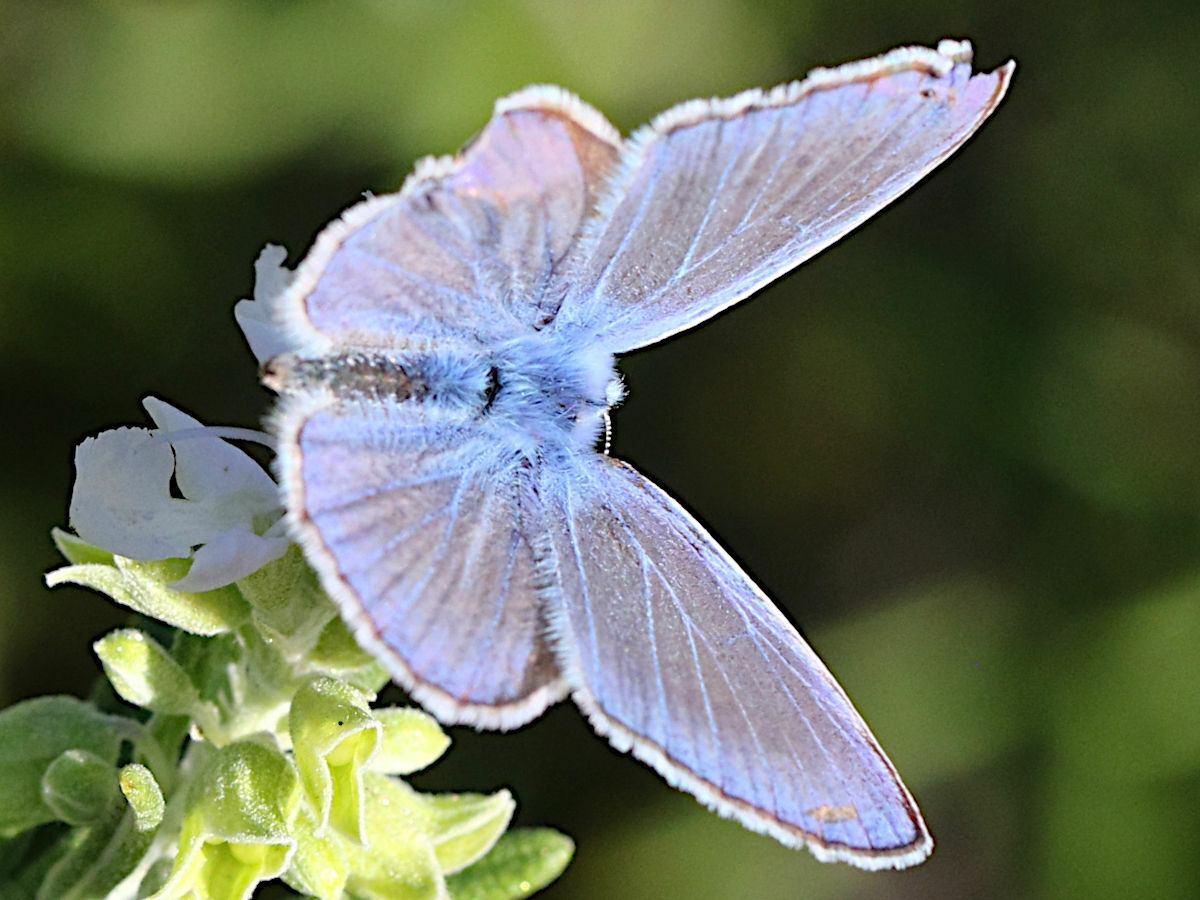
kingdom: Animalia
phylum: Arthropoda
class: Insecta
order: Lepidoptera
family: Lycaenidae
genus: Polyommatus
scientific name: Polyommatus icarus
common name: Common blue
